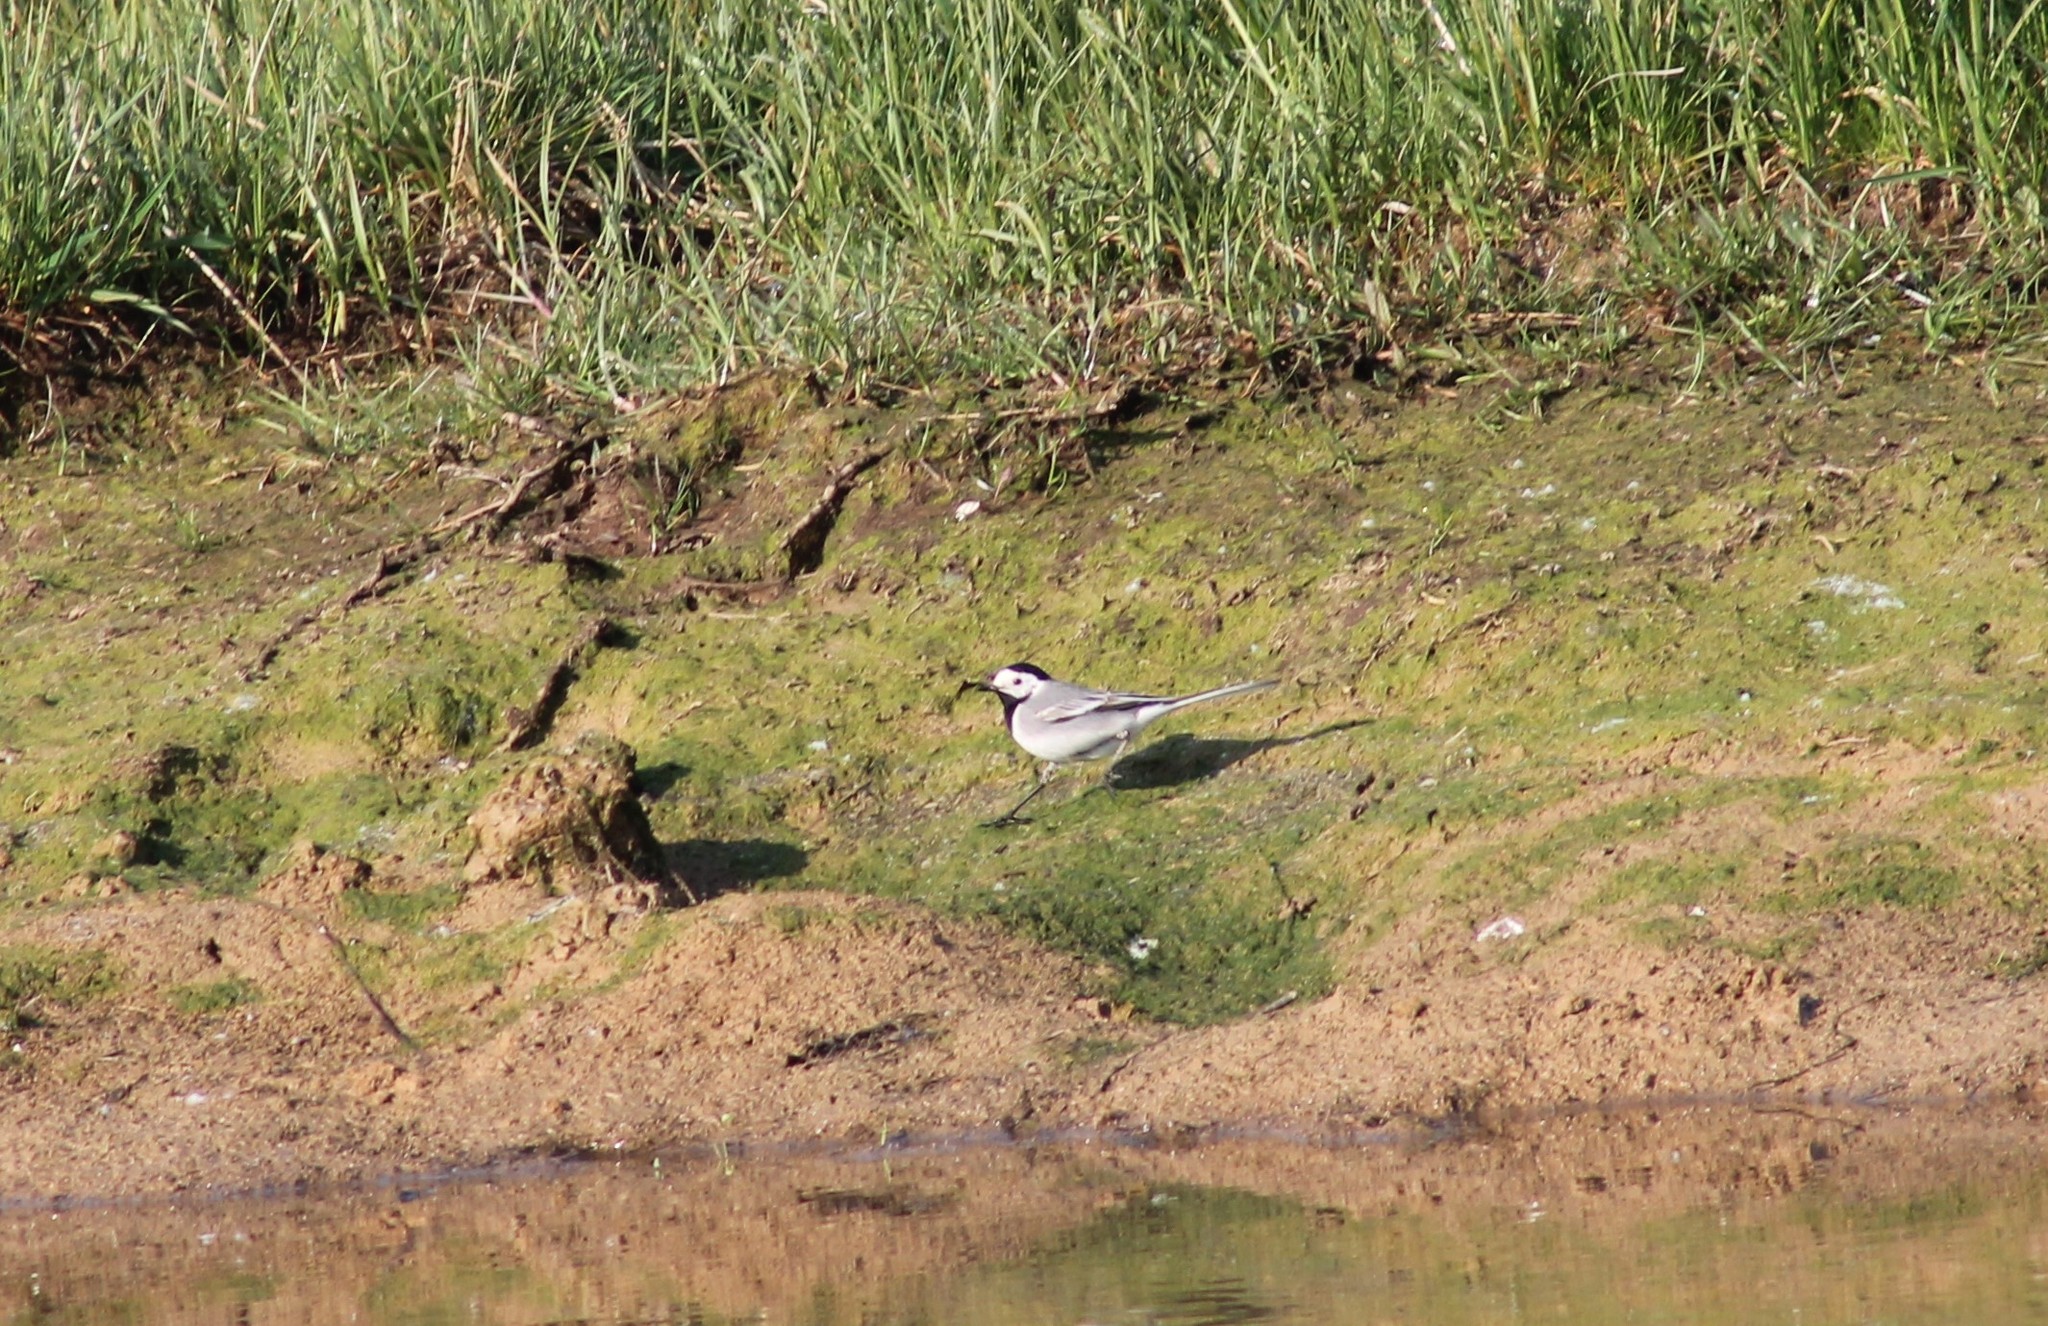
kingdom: Animalia
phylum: Chordata
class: Aves
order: Passeriformes
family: Motacillidae
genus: Motacilla
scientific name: Motacilla alba
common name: White wagtail
